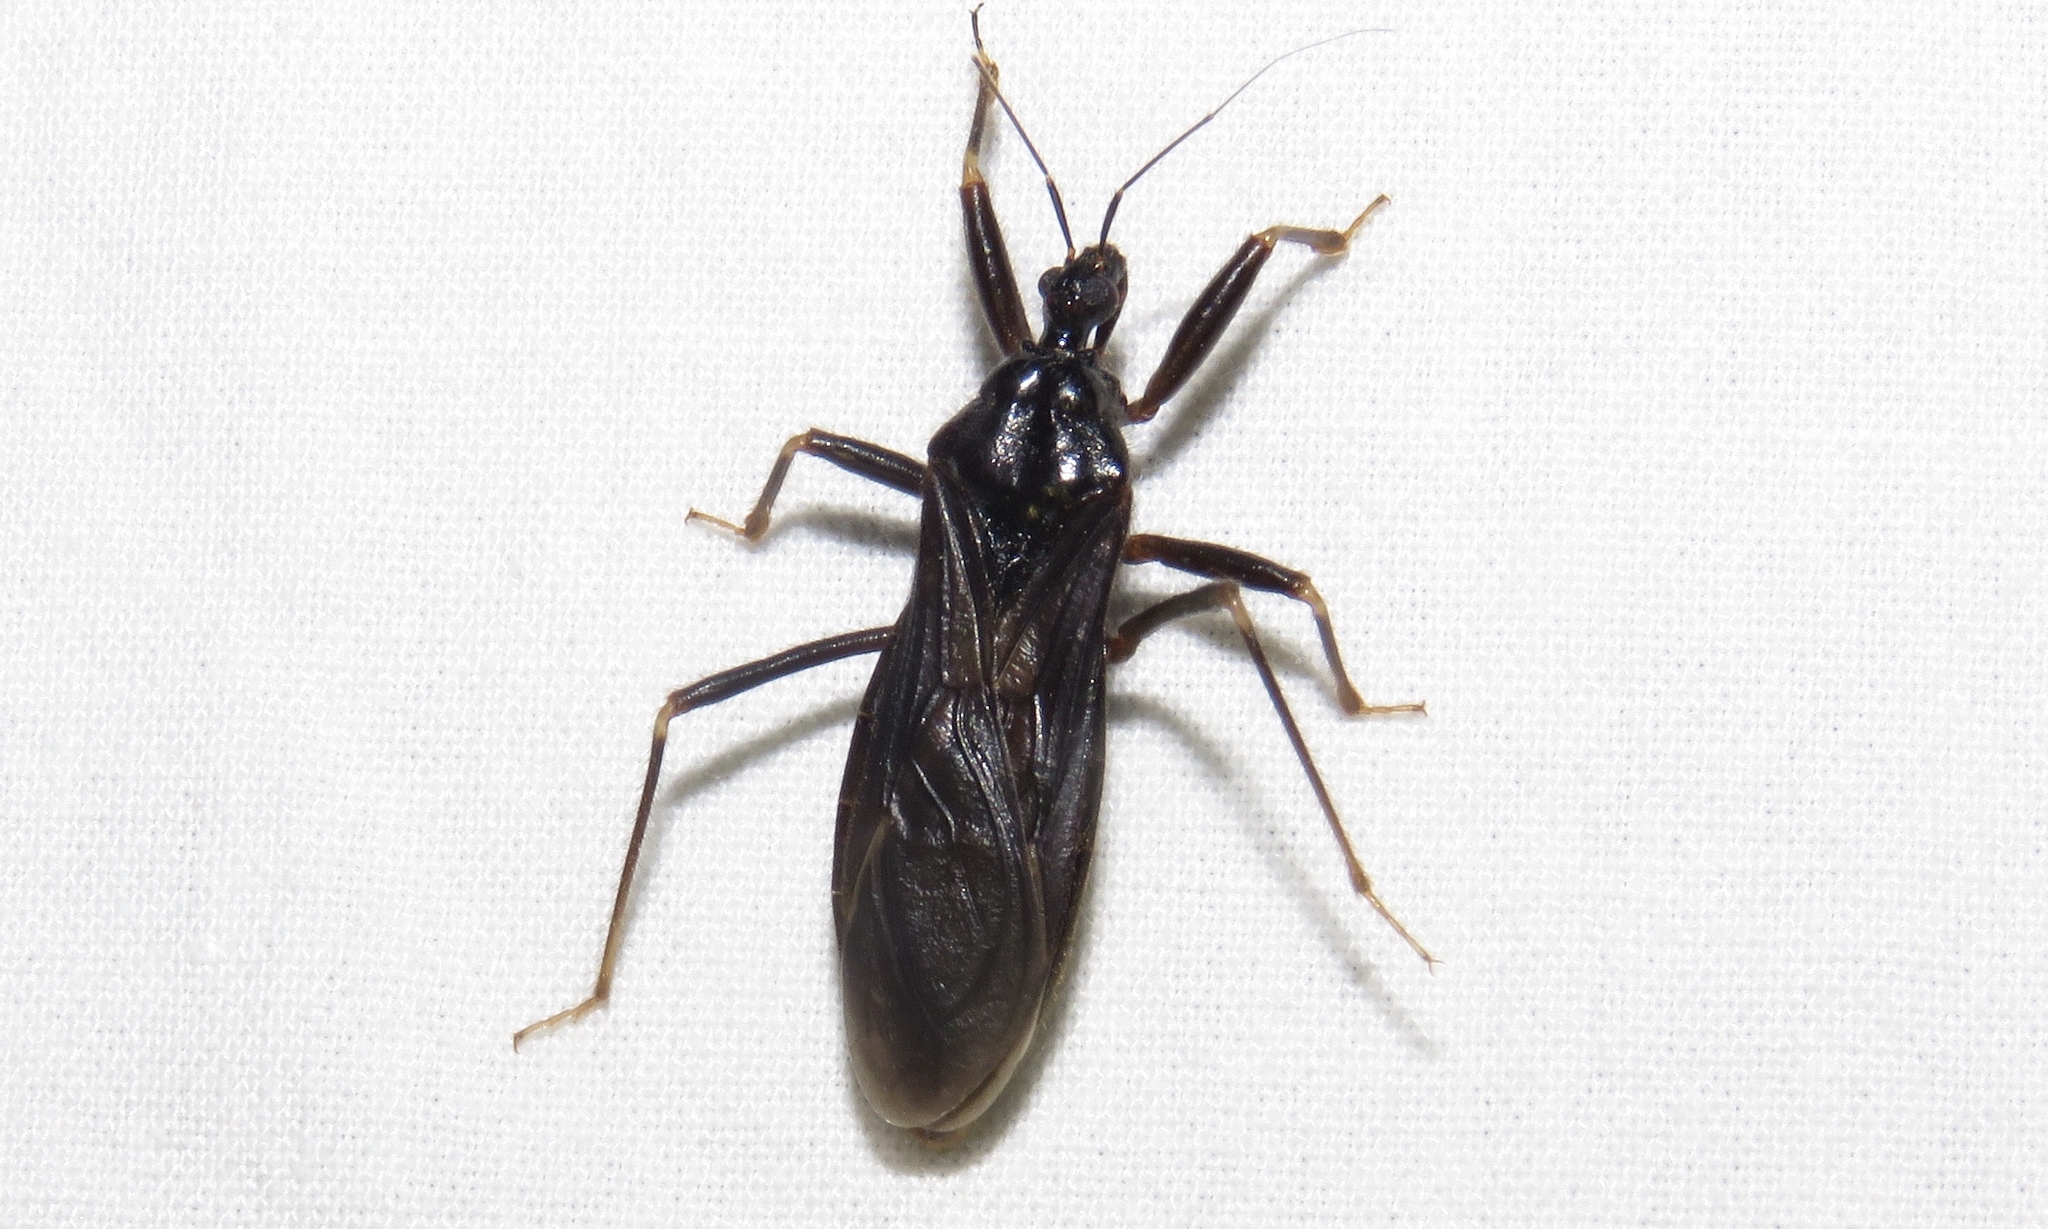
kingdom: Animalia
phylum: Arthropoda
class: Insecta
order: Hemiptera
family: Reduviidae
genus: Reduvius
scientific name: Reduvius personatus
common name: Masked hunter
